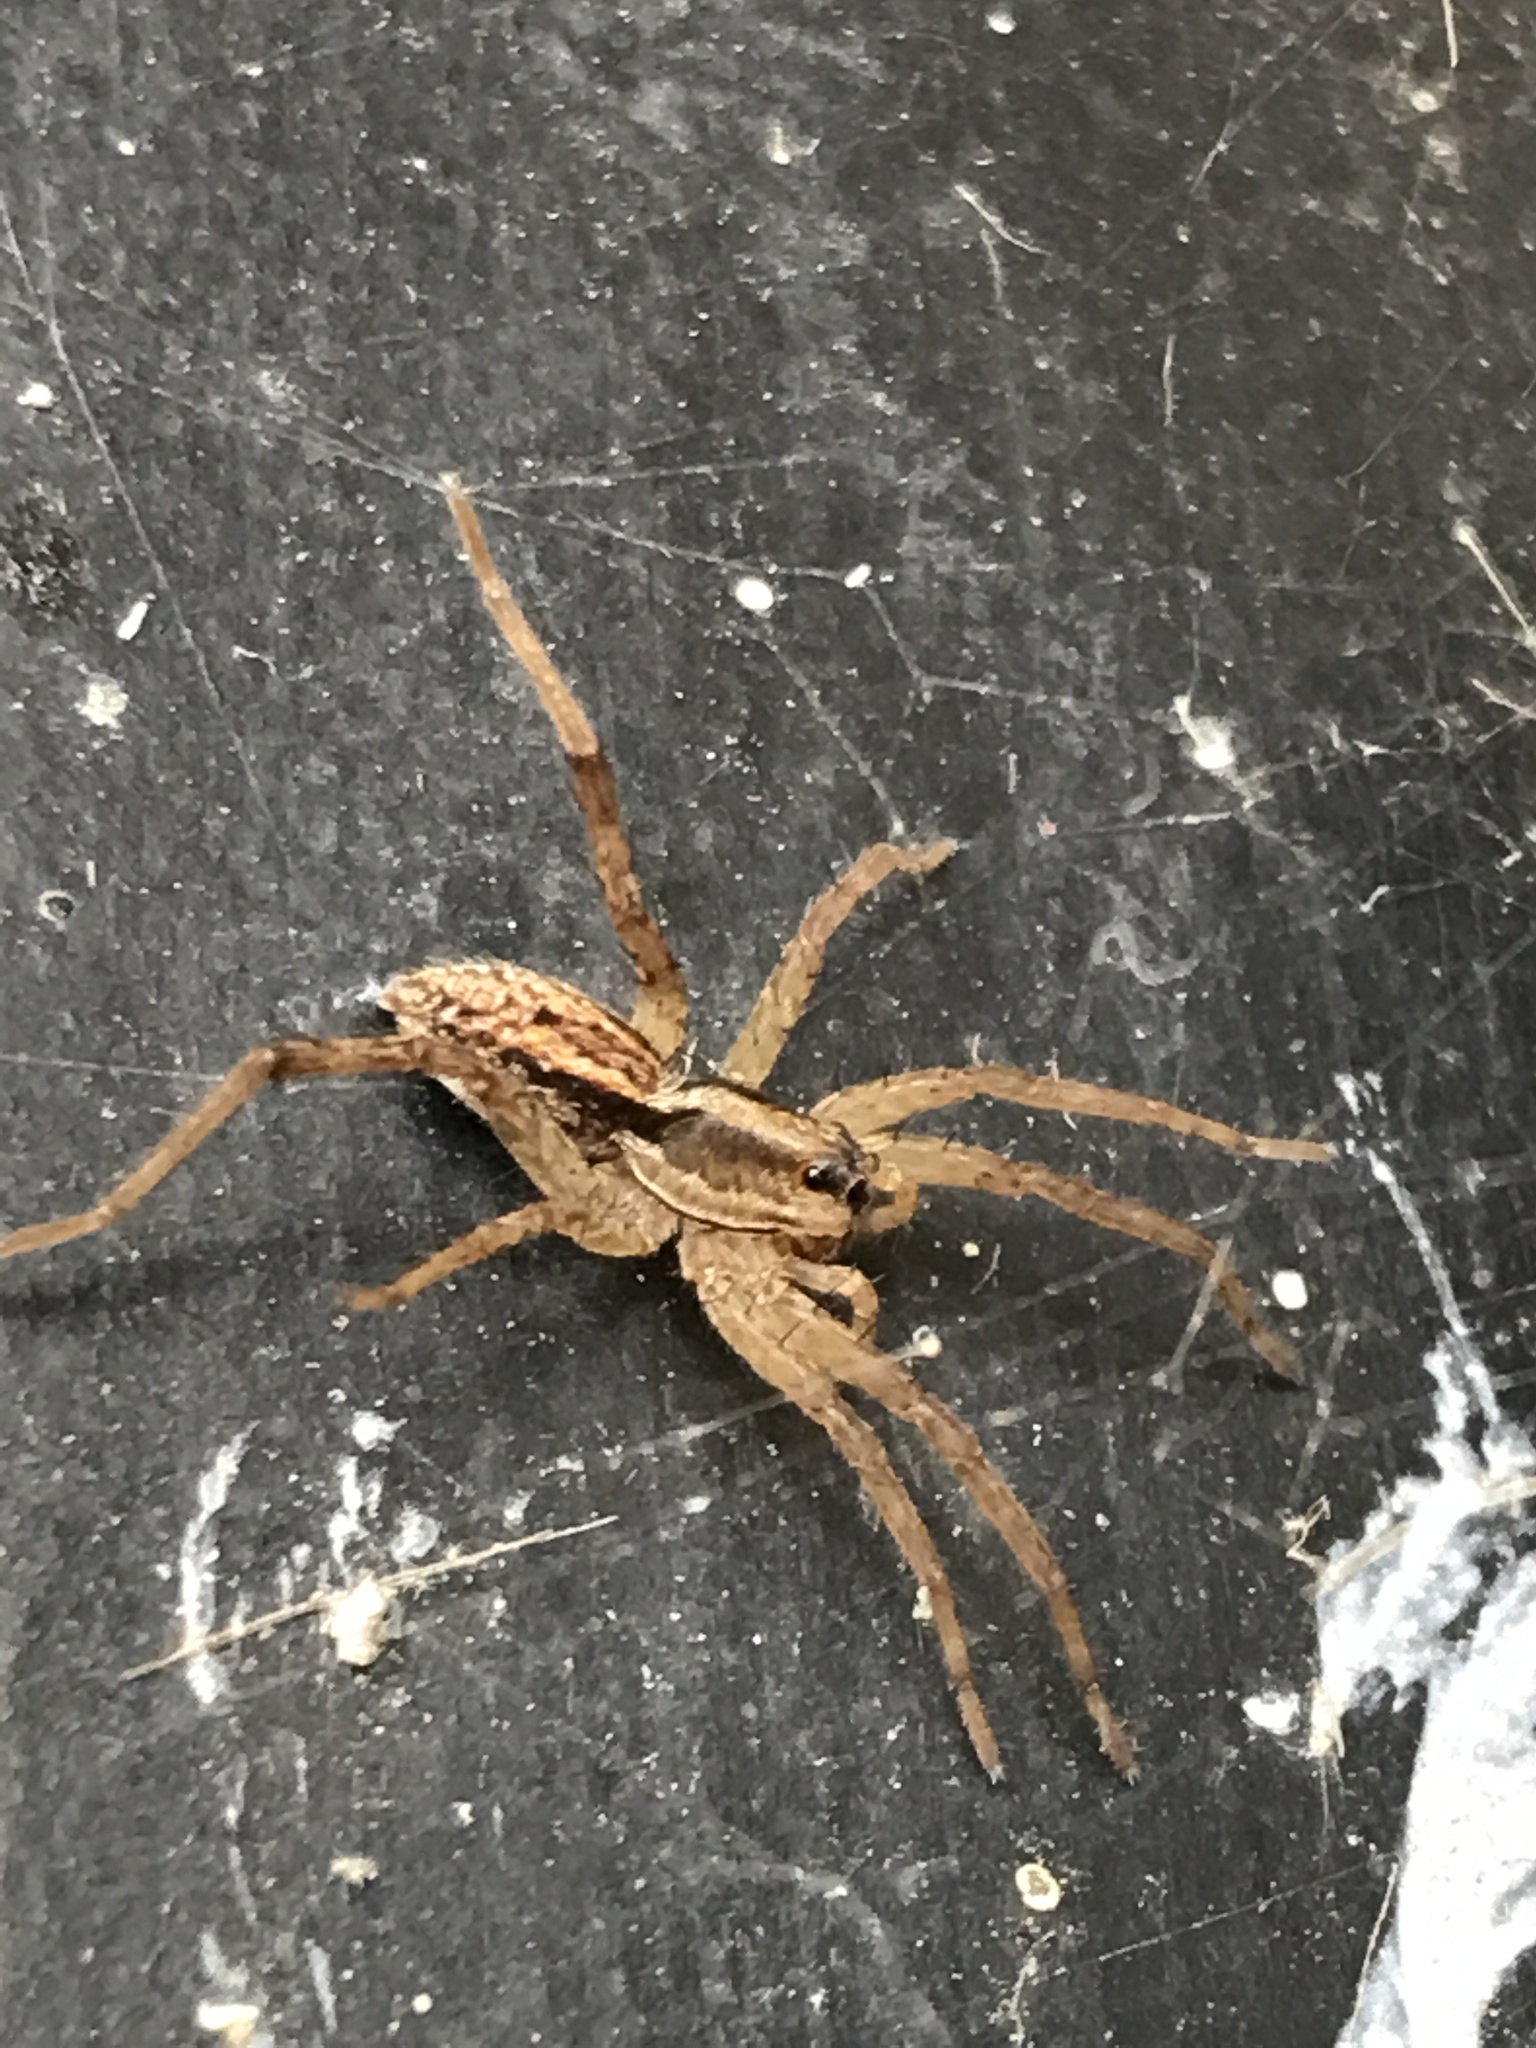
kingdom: Animalia
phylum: Arthropoda
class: Arachnida
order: Araneae
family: Lycosidae
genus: Alopecosa
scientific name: Alopecosa moesta
